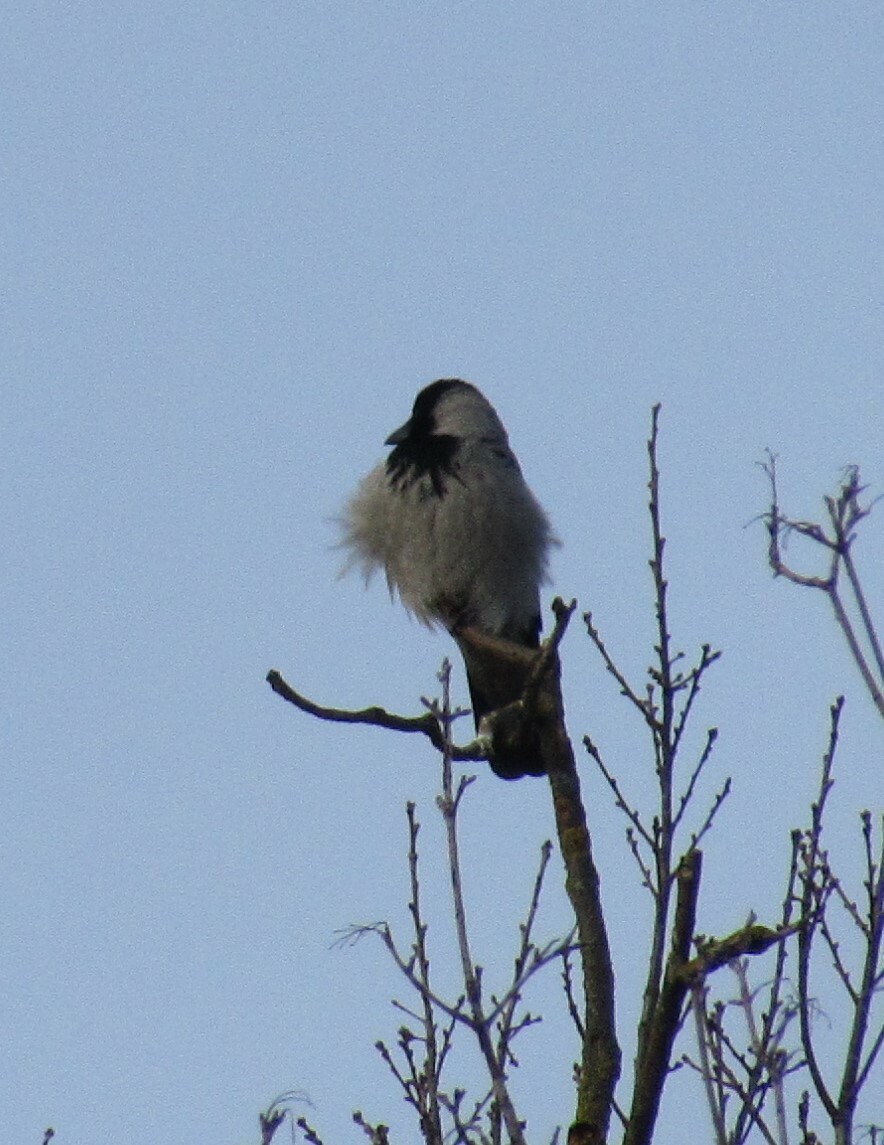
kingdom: Animalia
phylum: Chordata
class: Aves
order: Passeriformes
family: Corvidae
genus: Corvus
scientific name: Corvus cornix
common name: Hooded crow
